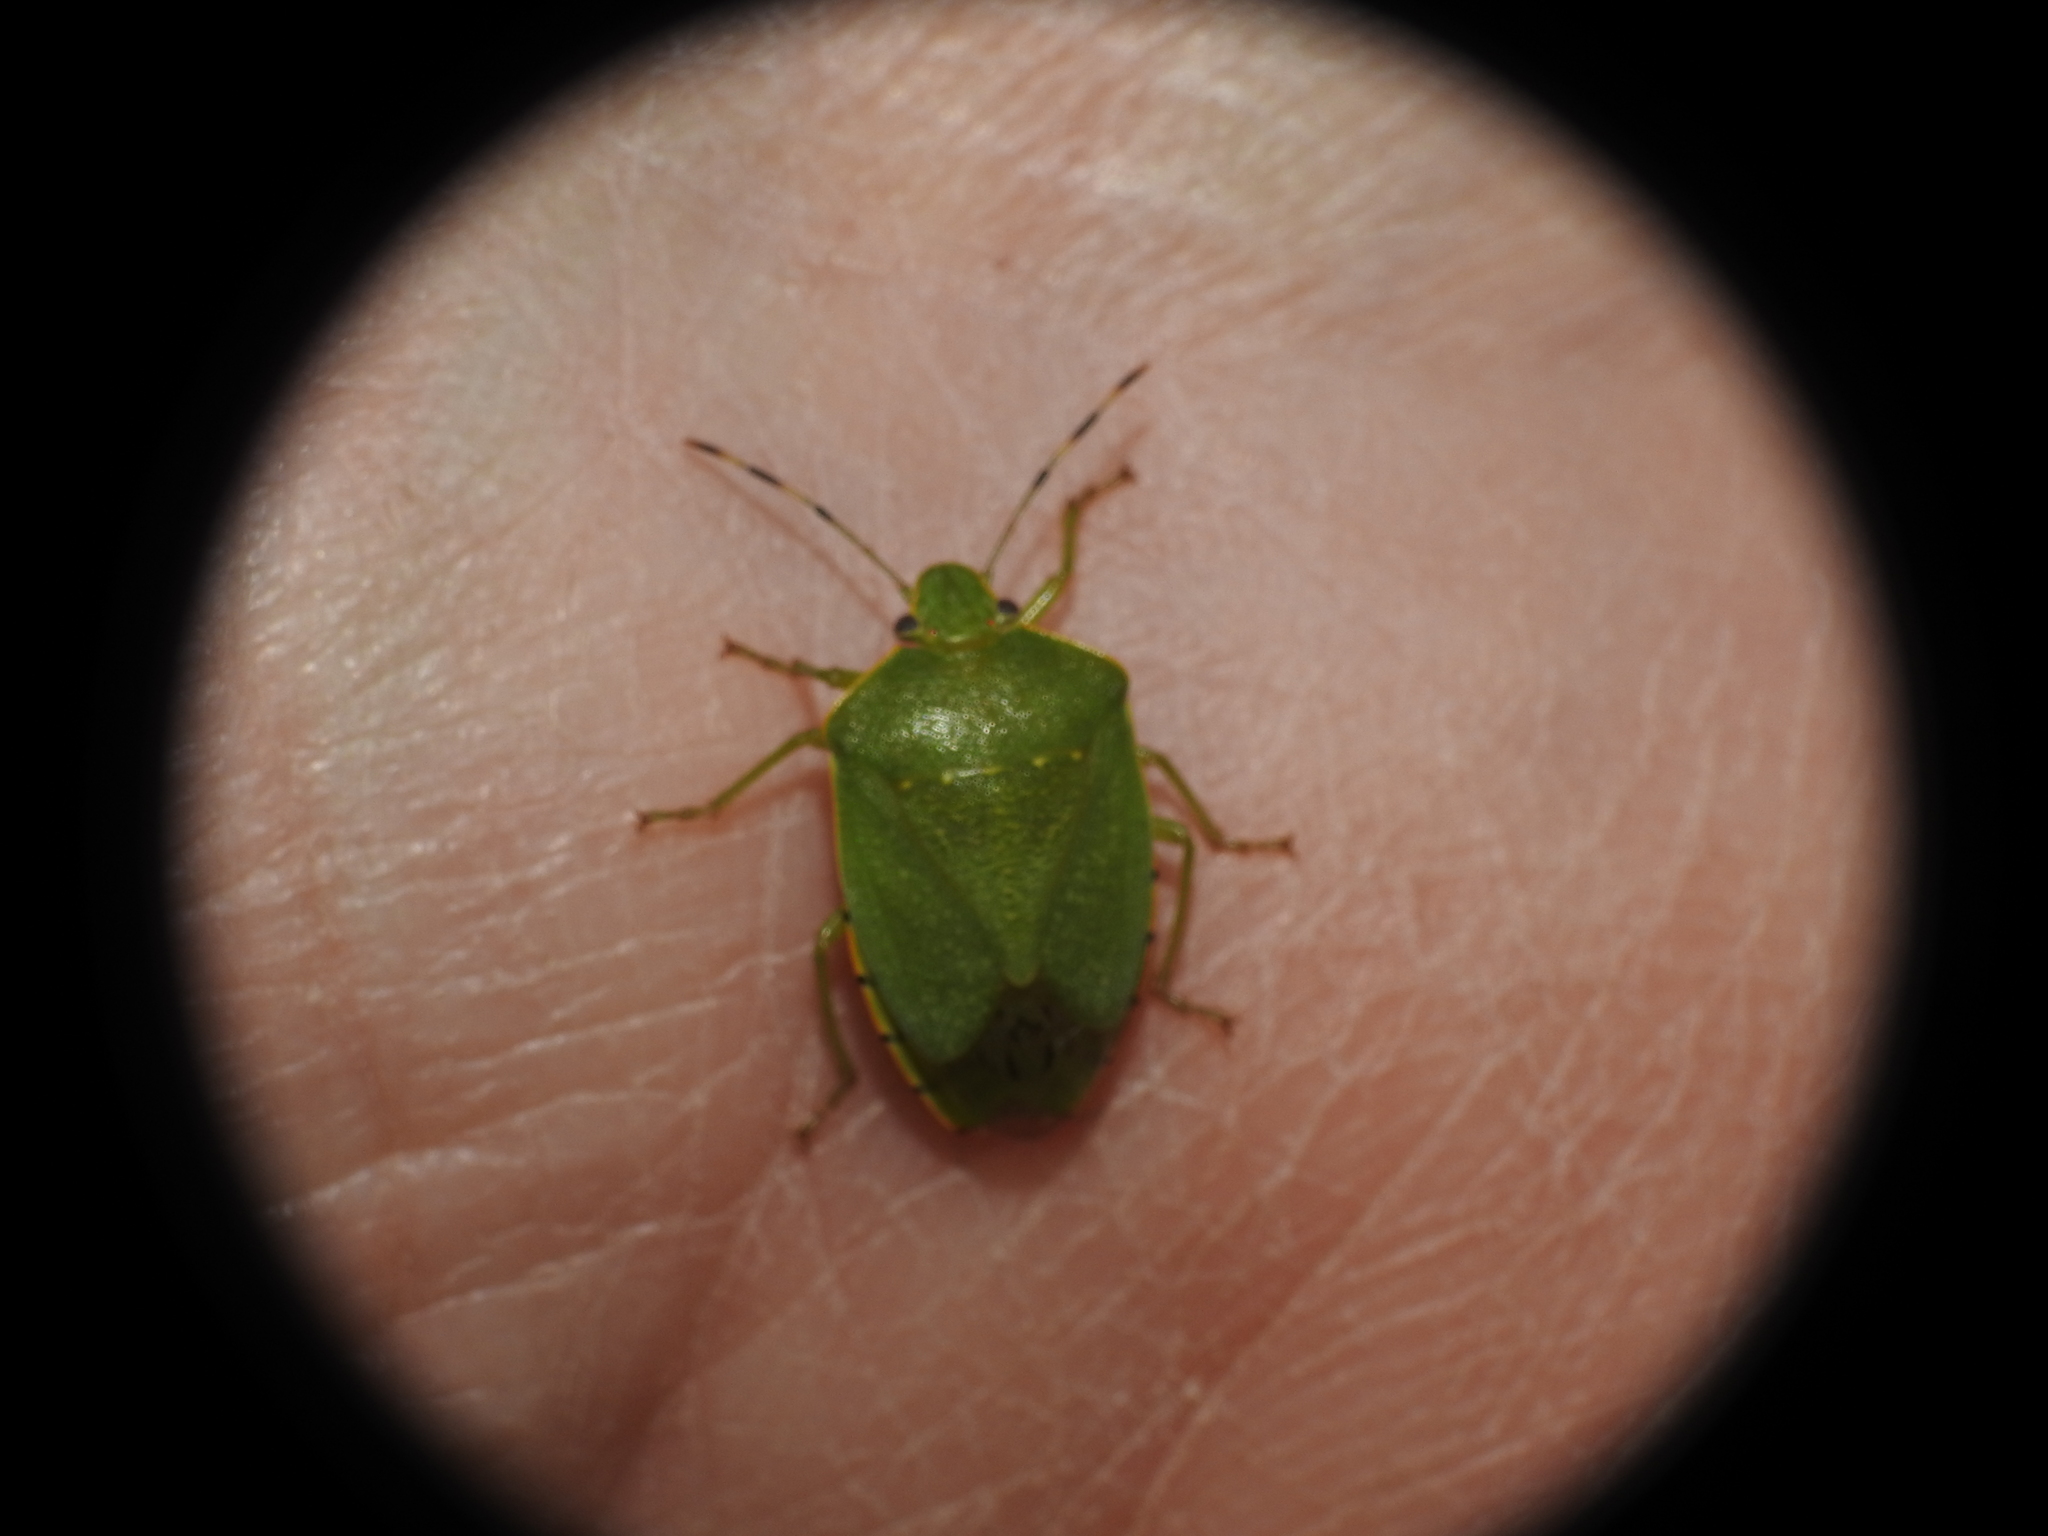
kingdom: Animalia
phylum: Arthropoda
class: Insecta
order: Hemiptera
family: Pentatomidae
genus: Chinavia
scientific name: Chinavia hilaris
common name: Green stink bug
